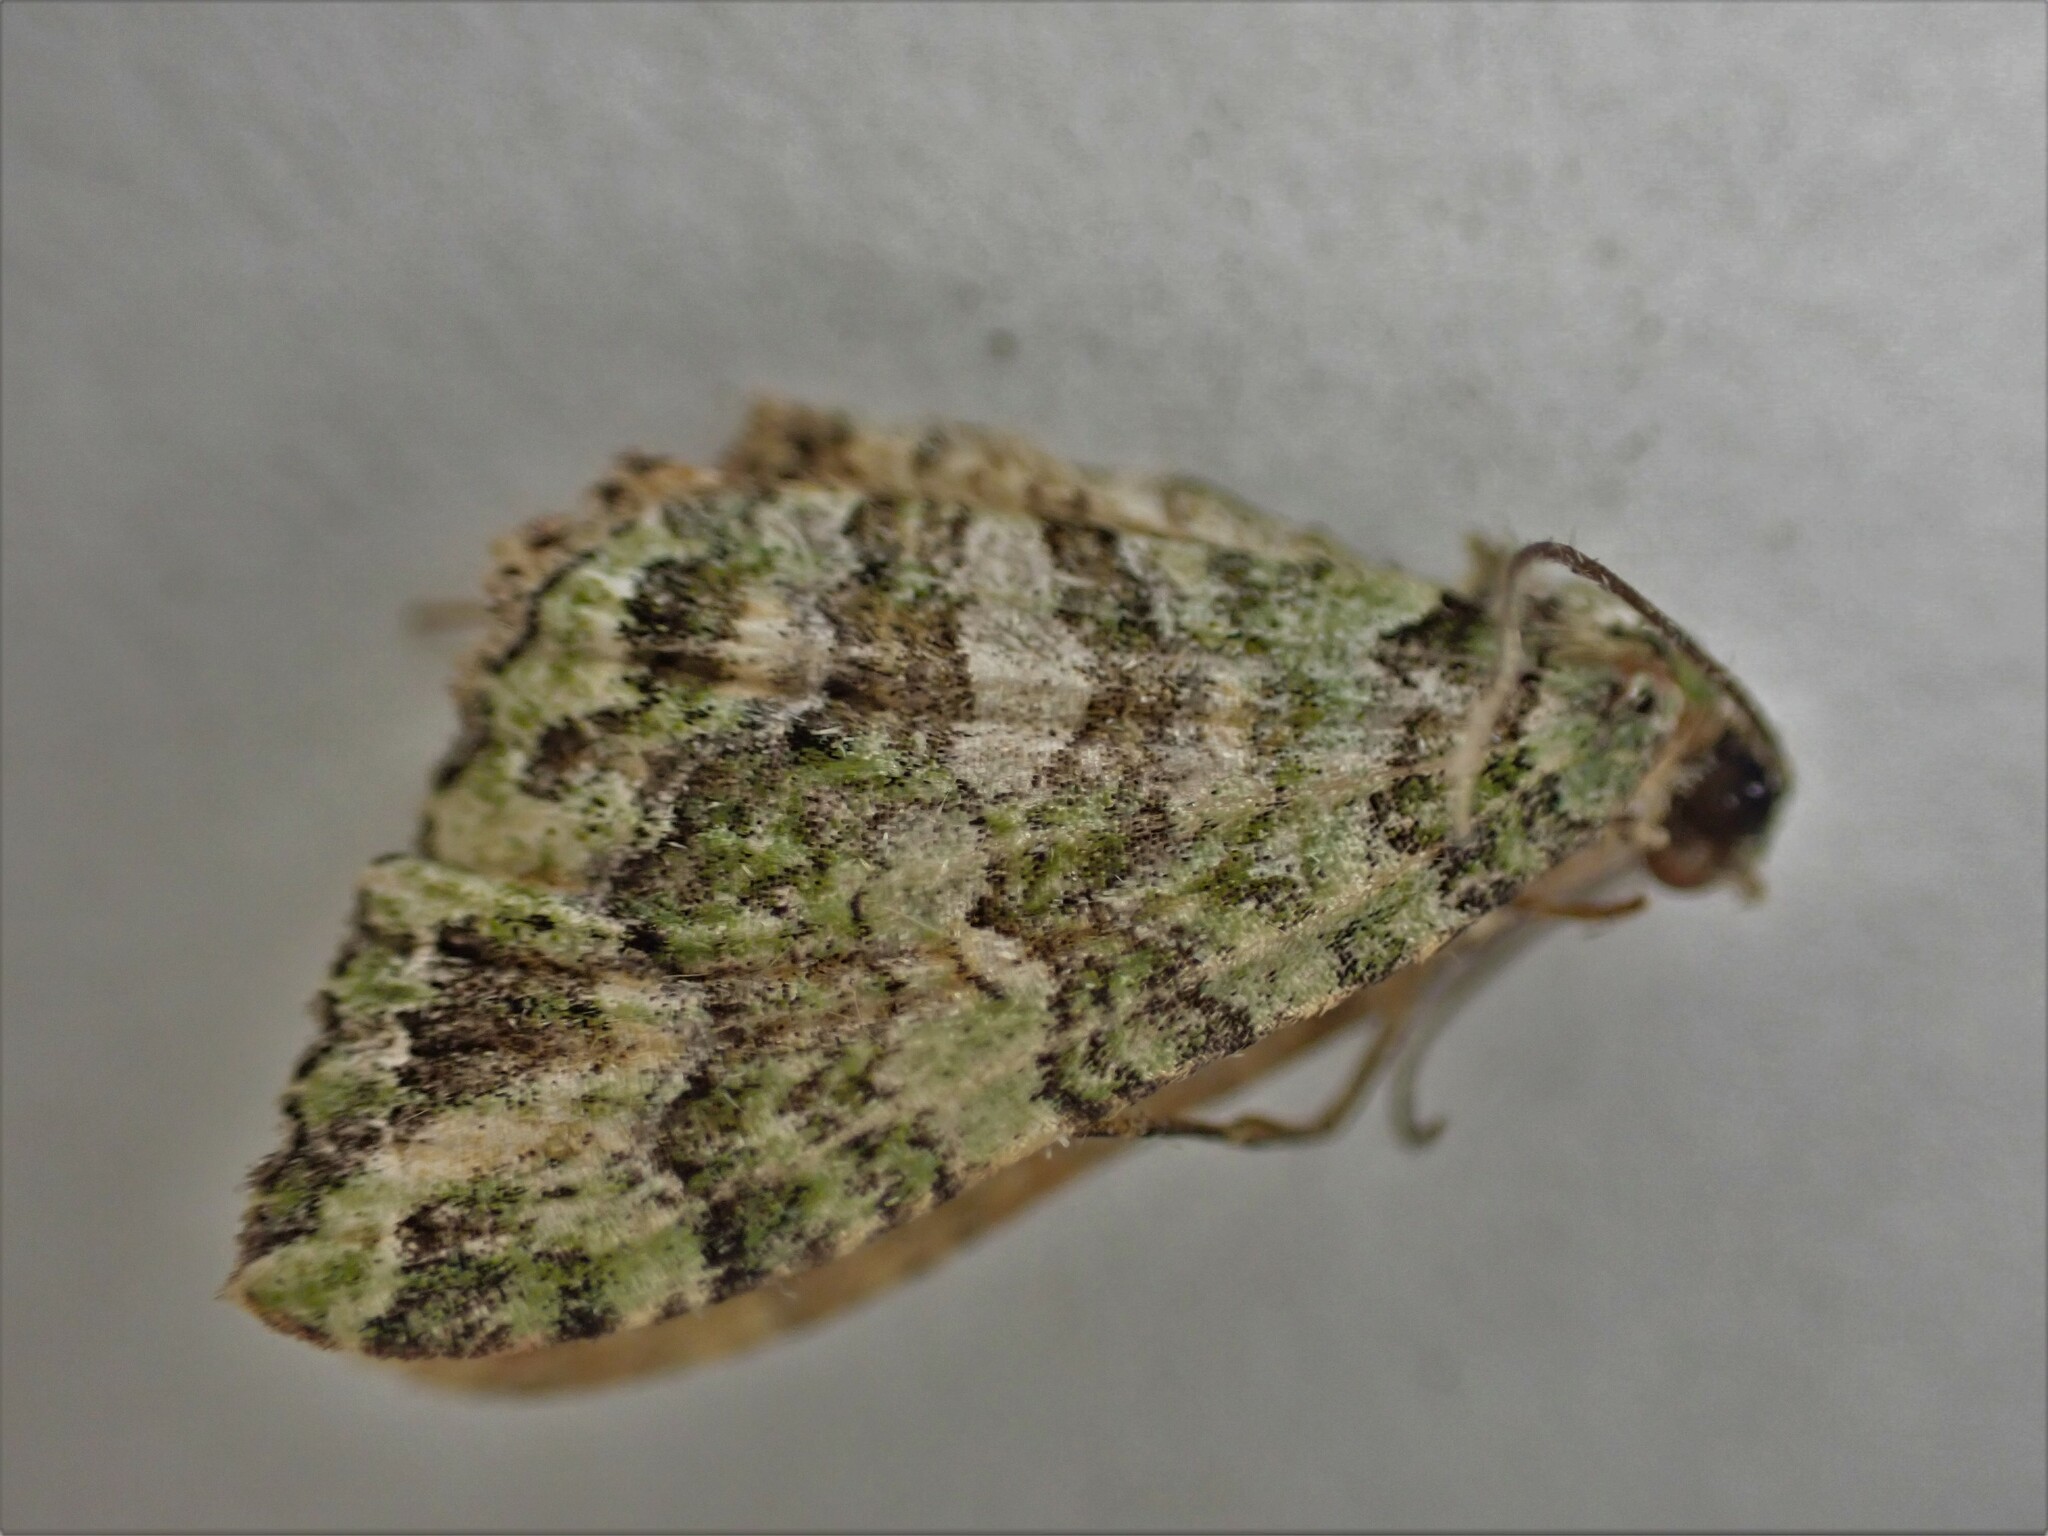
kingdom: Animalia
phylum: Arthropoda
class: Insecta
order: Lepidoptera
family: Geometridae
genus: Austrocidaria
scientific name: Austrocidaria similata
